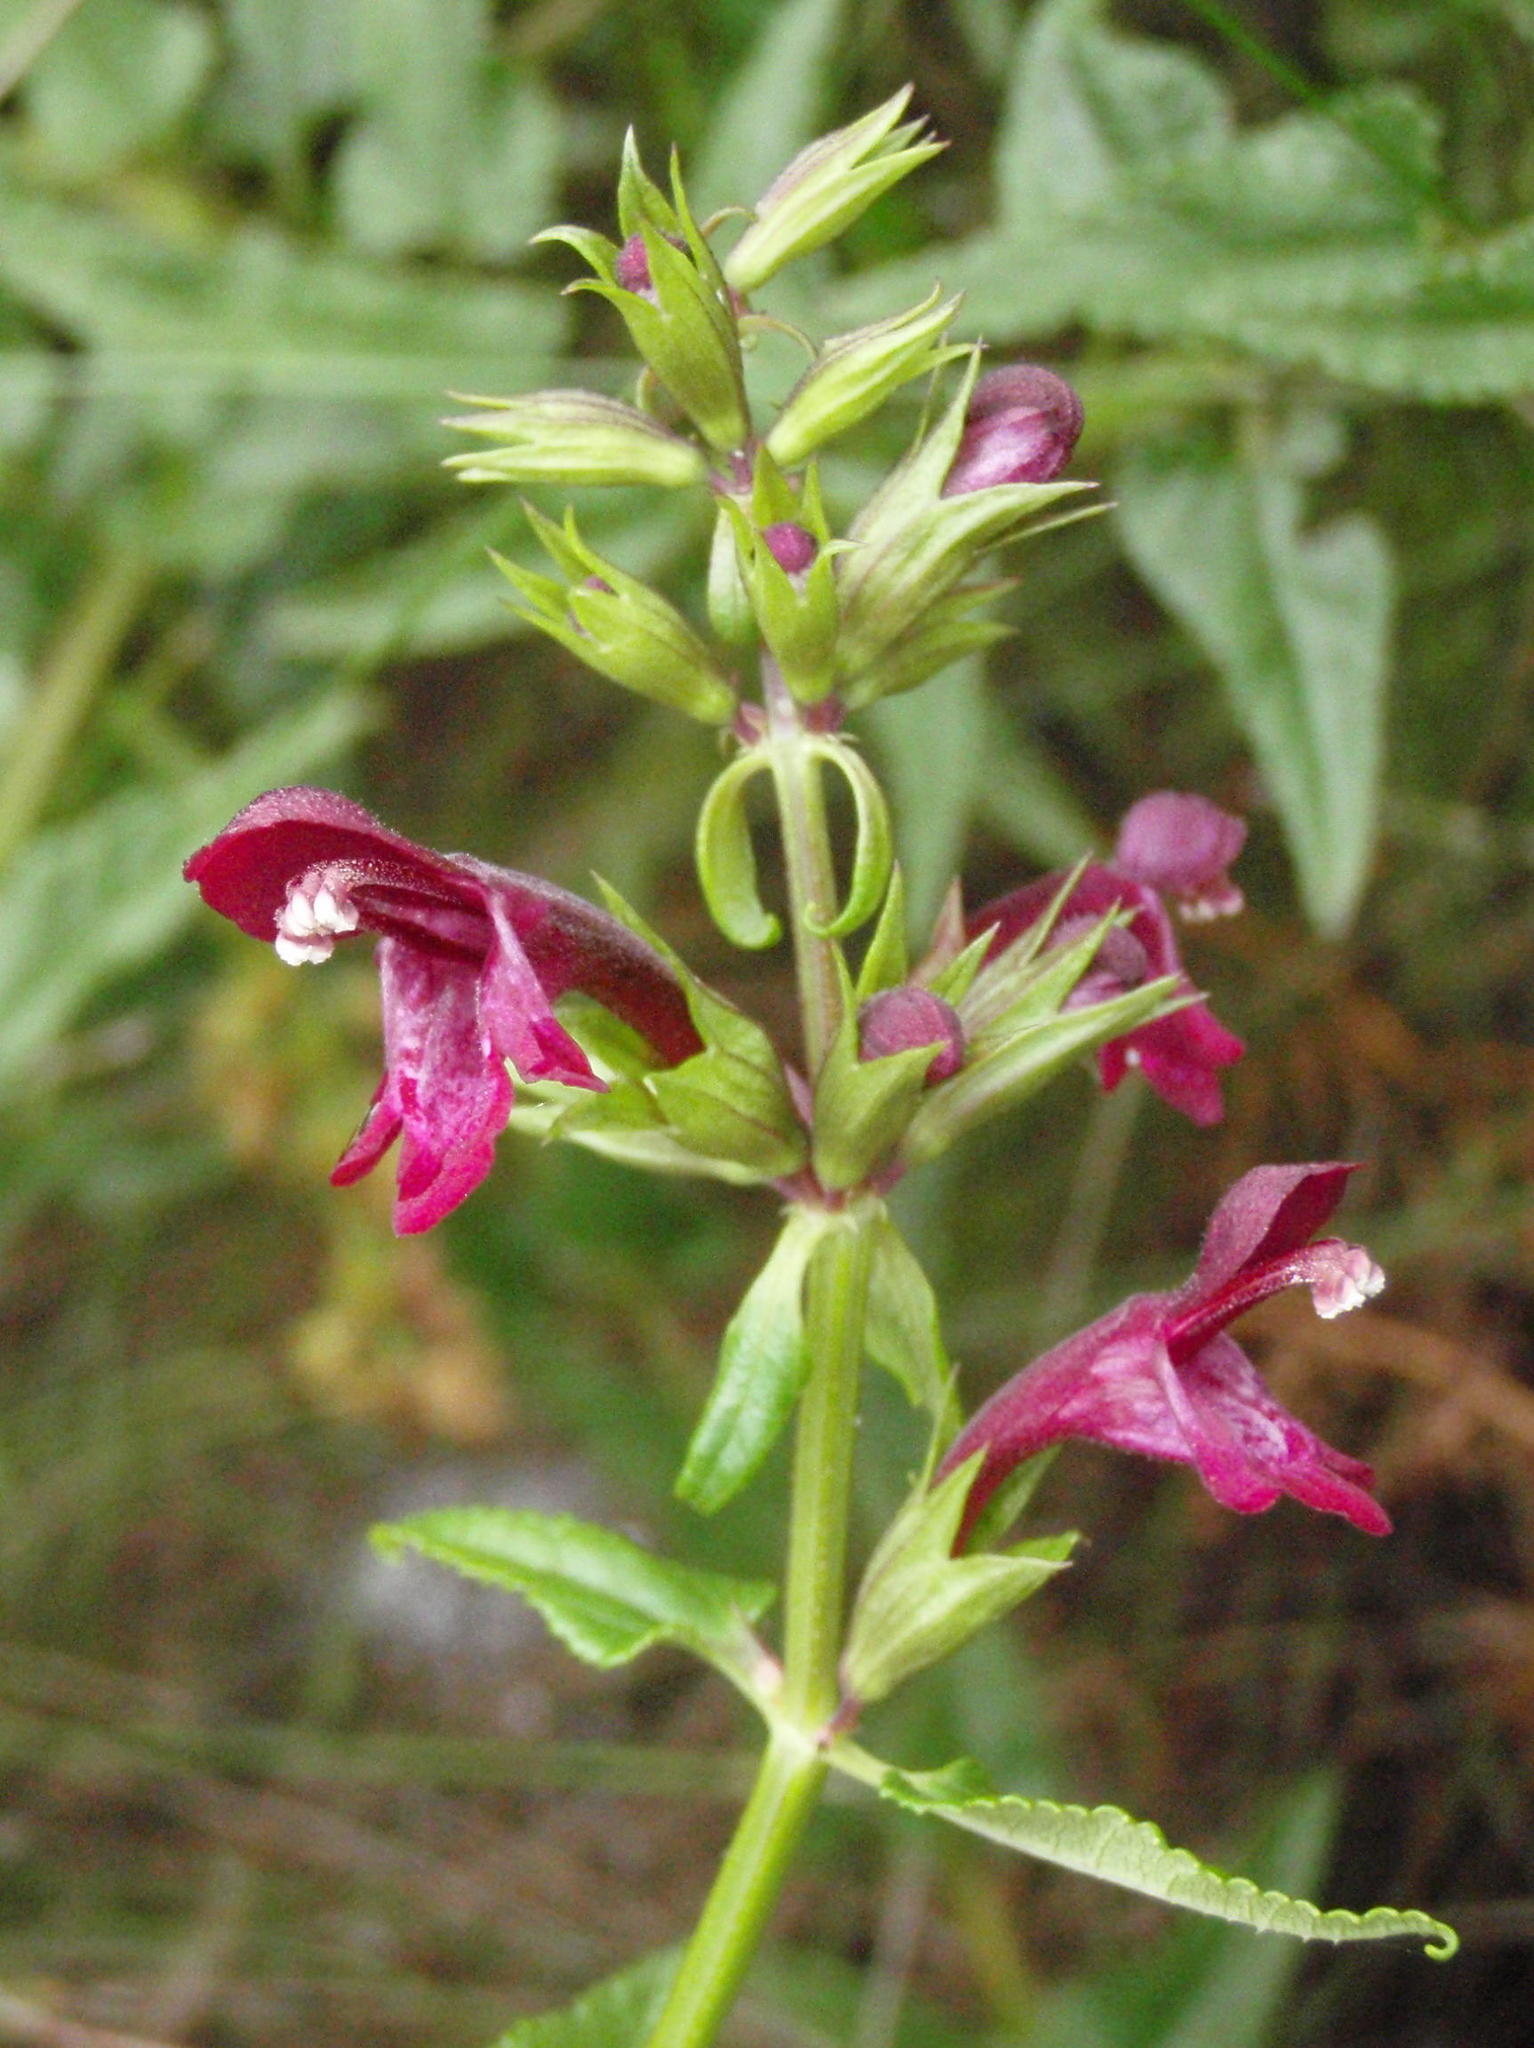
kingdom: Plantae
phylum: Tracheophyta
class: Magnoliopsida
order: Lamiales
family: Lamiaceae
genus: Stachys
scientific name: Stachys thunbergii
